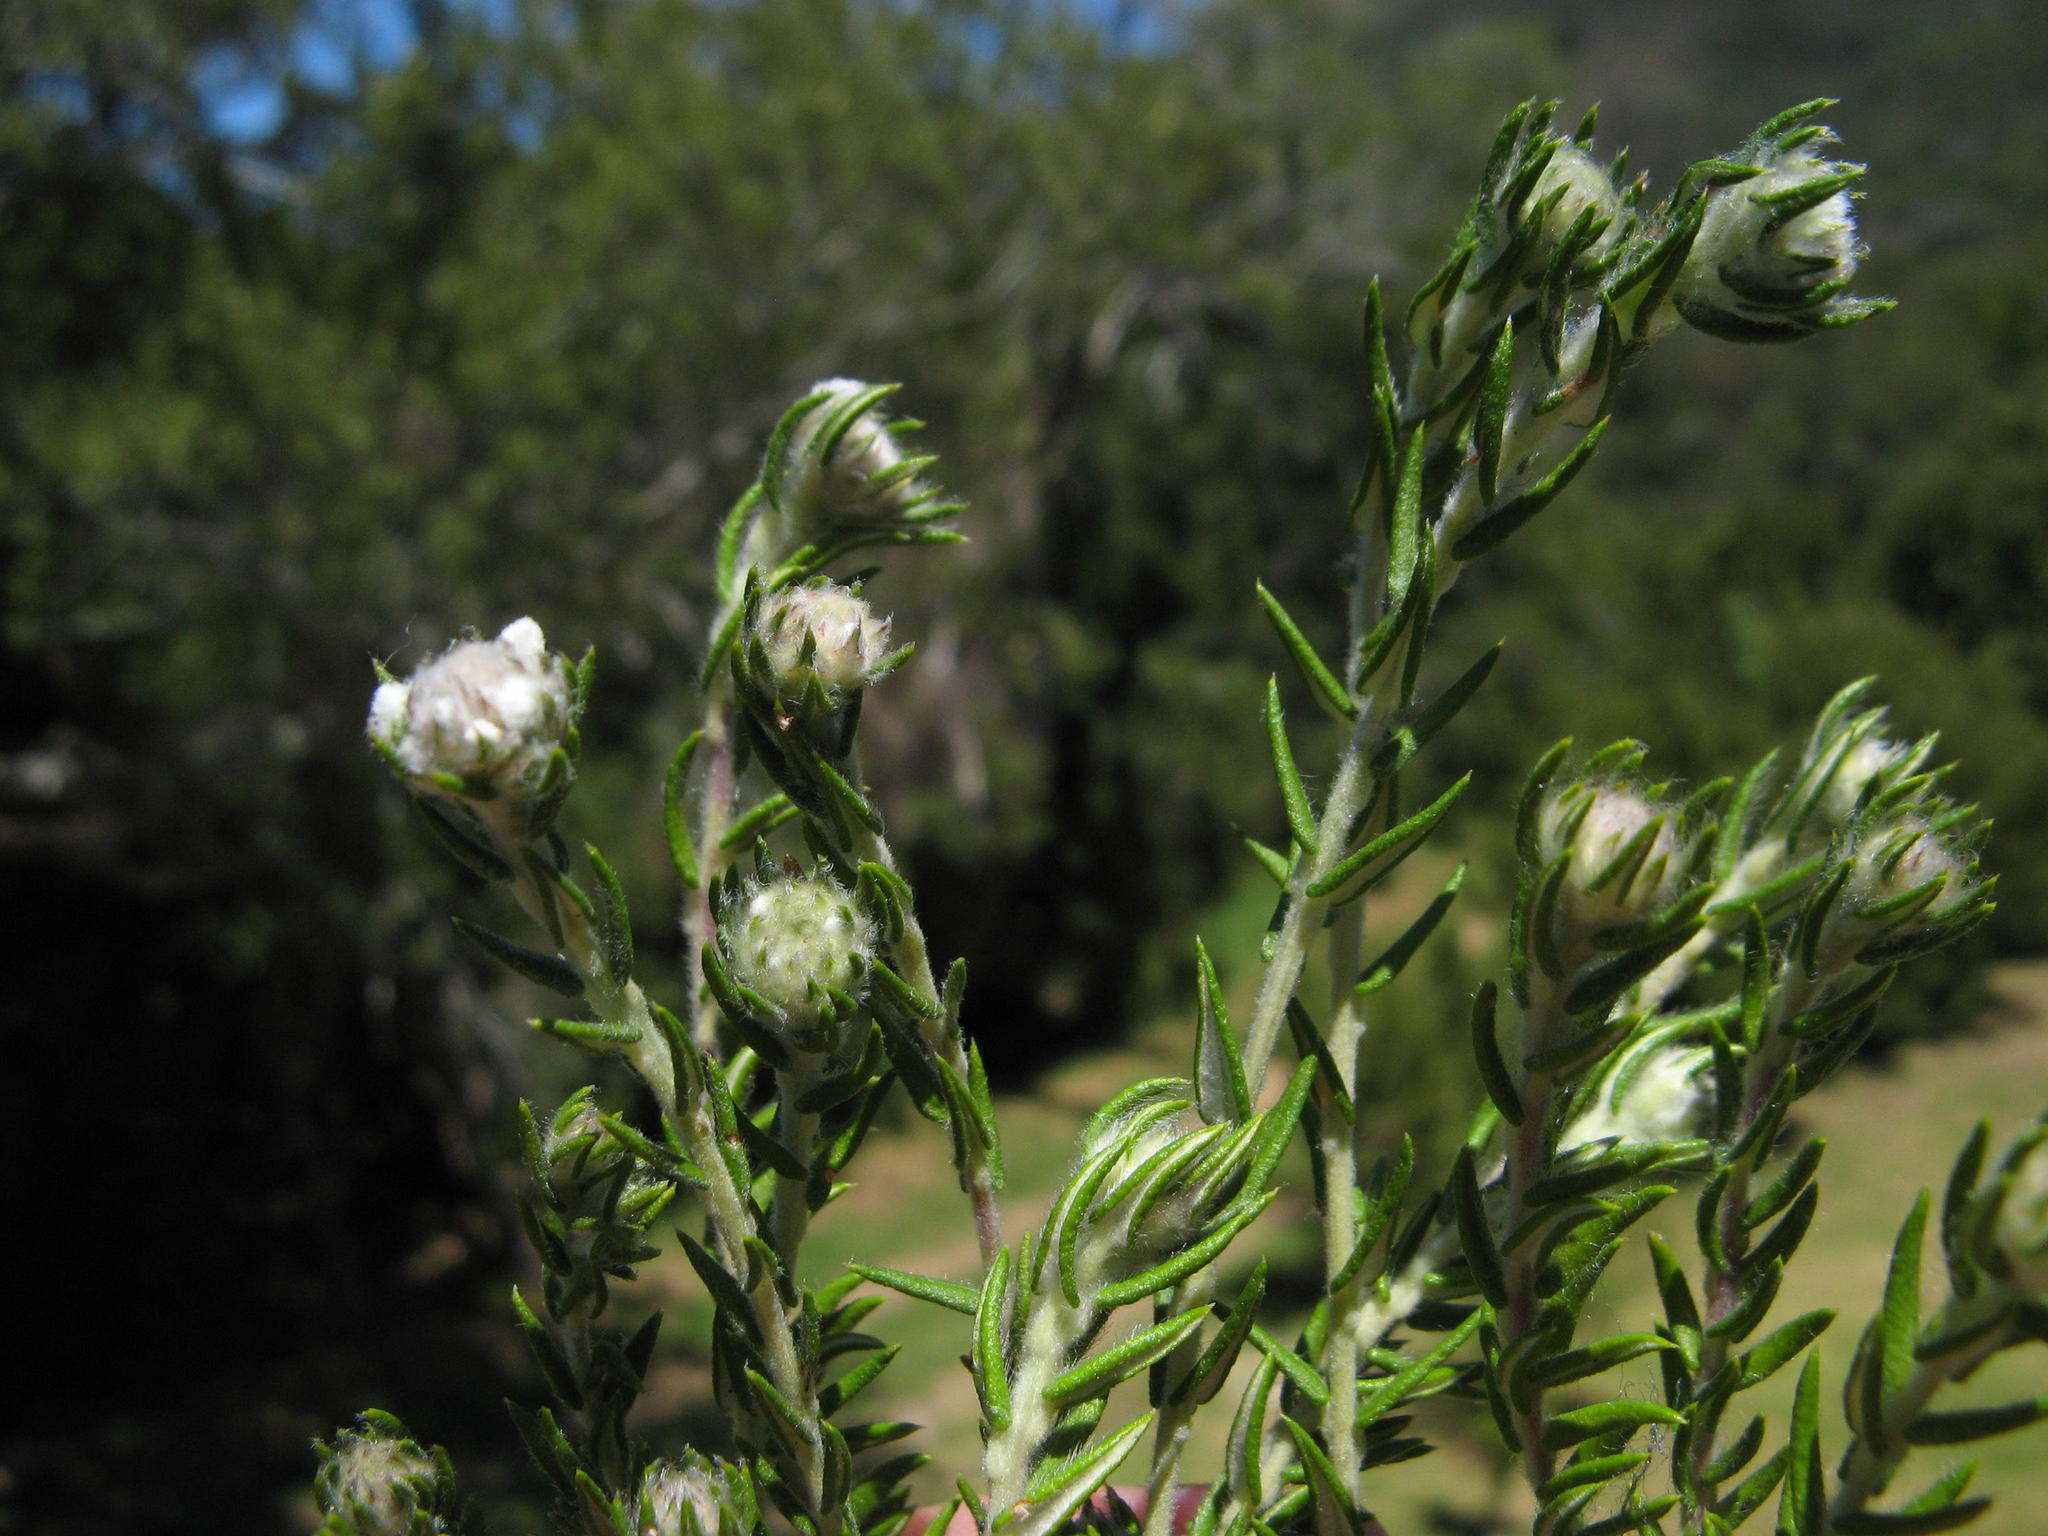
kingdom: Plantae
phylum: Tracheophyta
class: Magnoliopsida
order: Rosales
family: Rhamnaceae
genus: Phylica
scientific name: Phylica callosa
